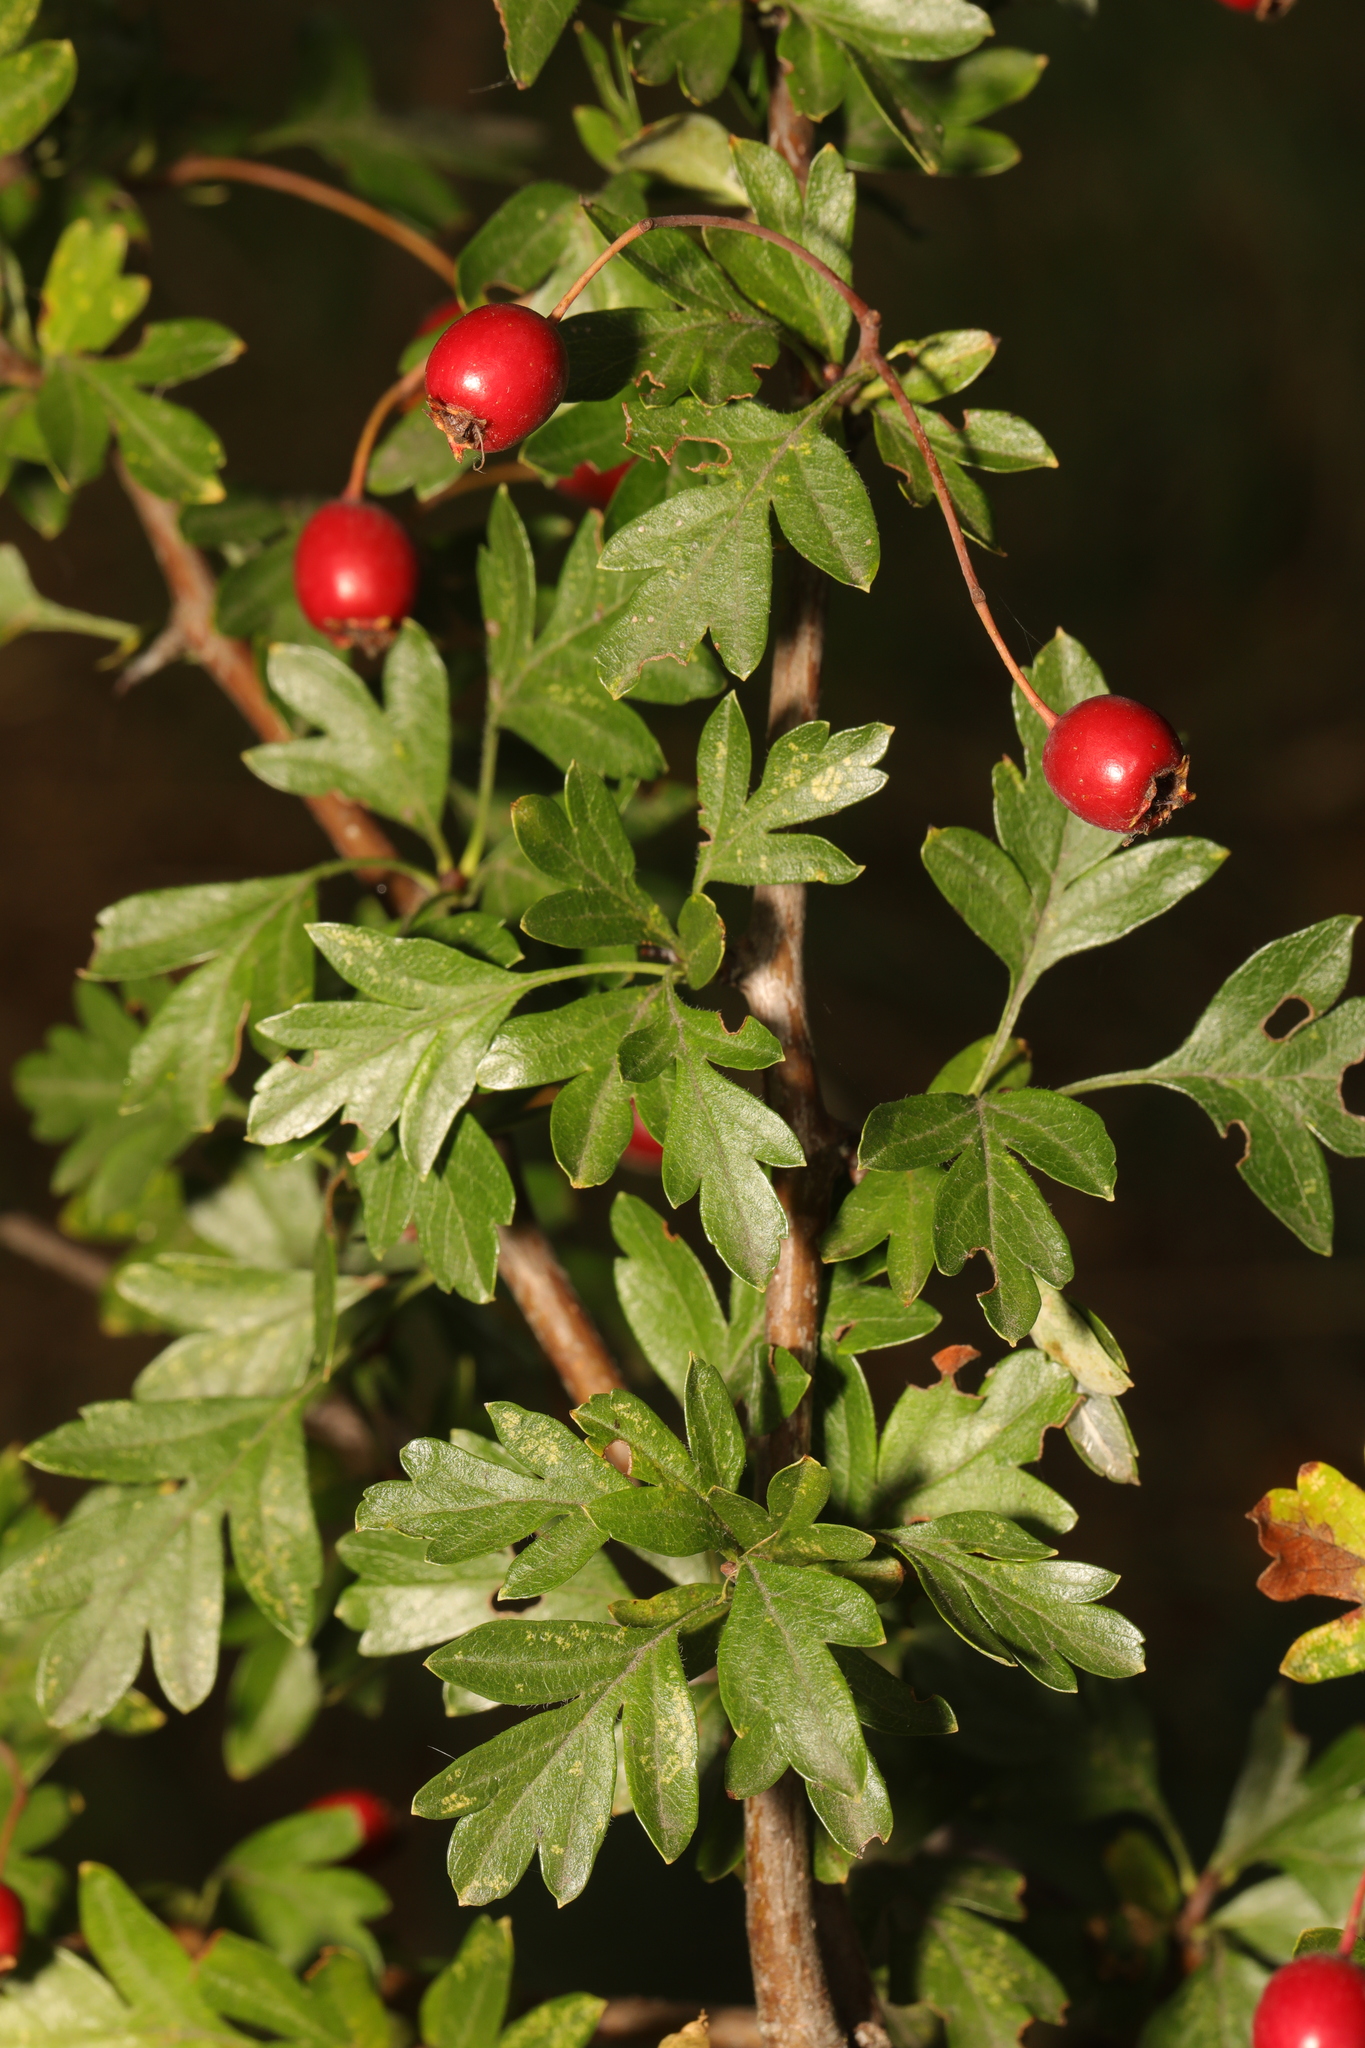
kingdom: Plantae
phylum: Tracheophyta
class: Magnoliopsida
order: Rosales
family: Rosaceae
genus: Crataegus
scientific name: Crataegus monogyna
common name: Hawthorn
